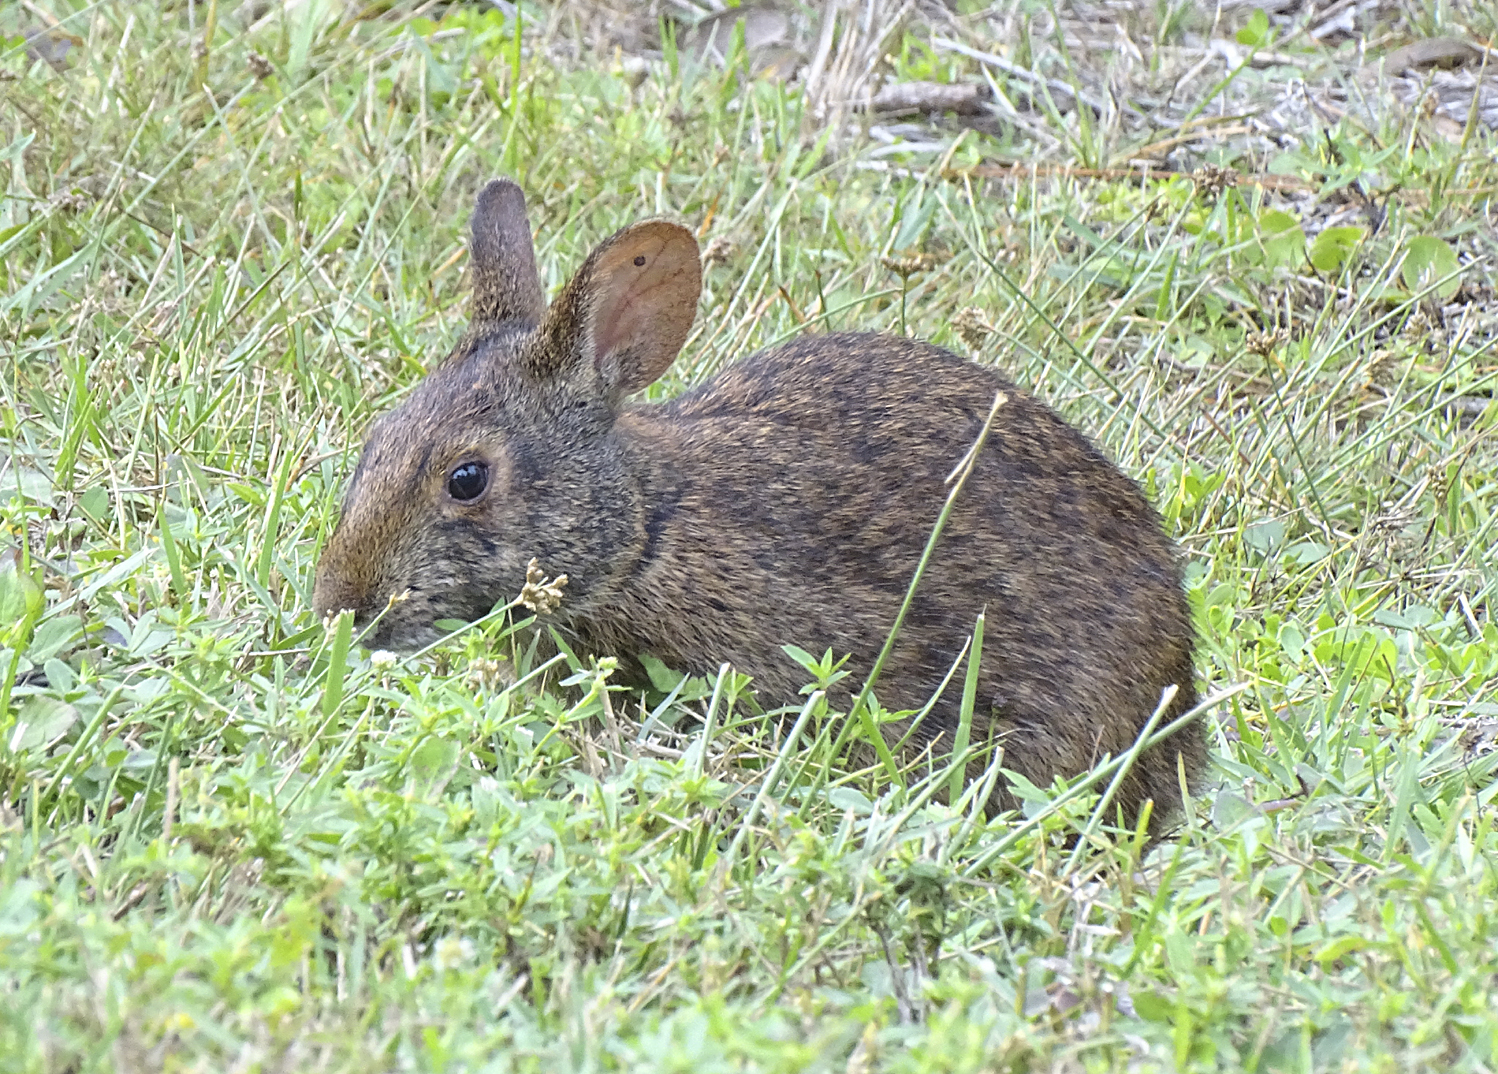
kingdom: Animalia
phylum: Chordata
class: Mammalia
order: Lagomorpha
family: Leporidae
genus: Sylvilagus
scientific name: Sylvilagus palustris
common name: Marsh rabbit
